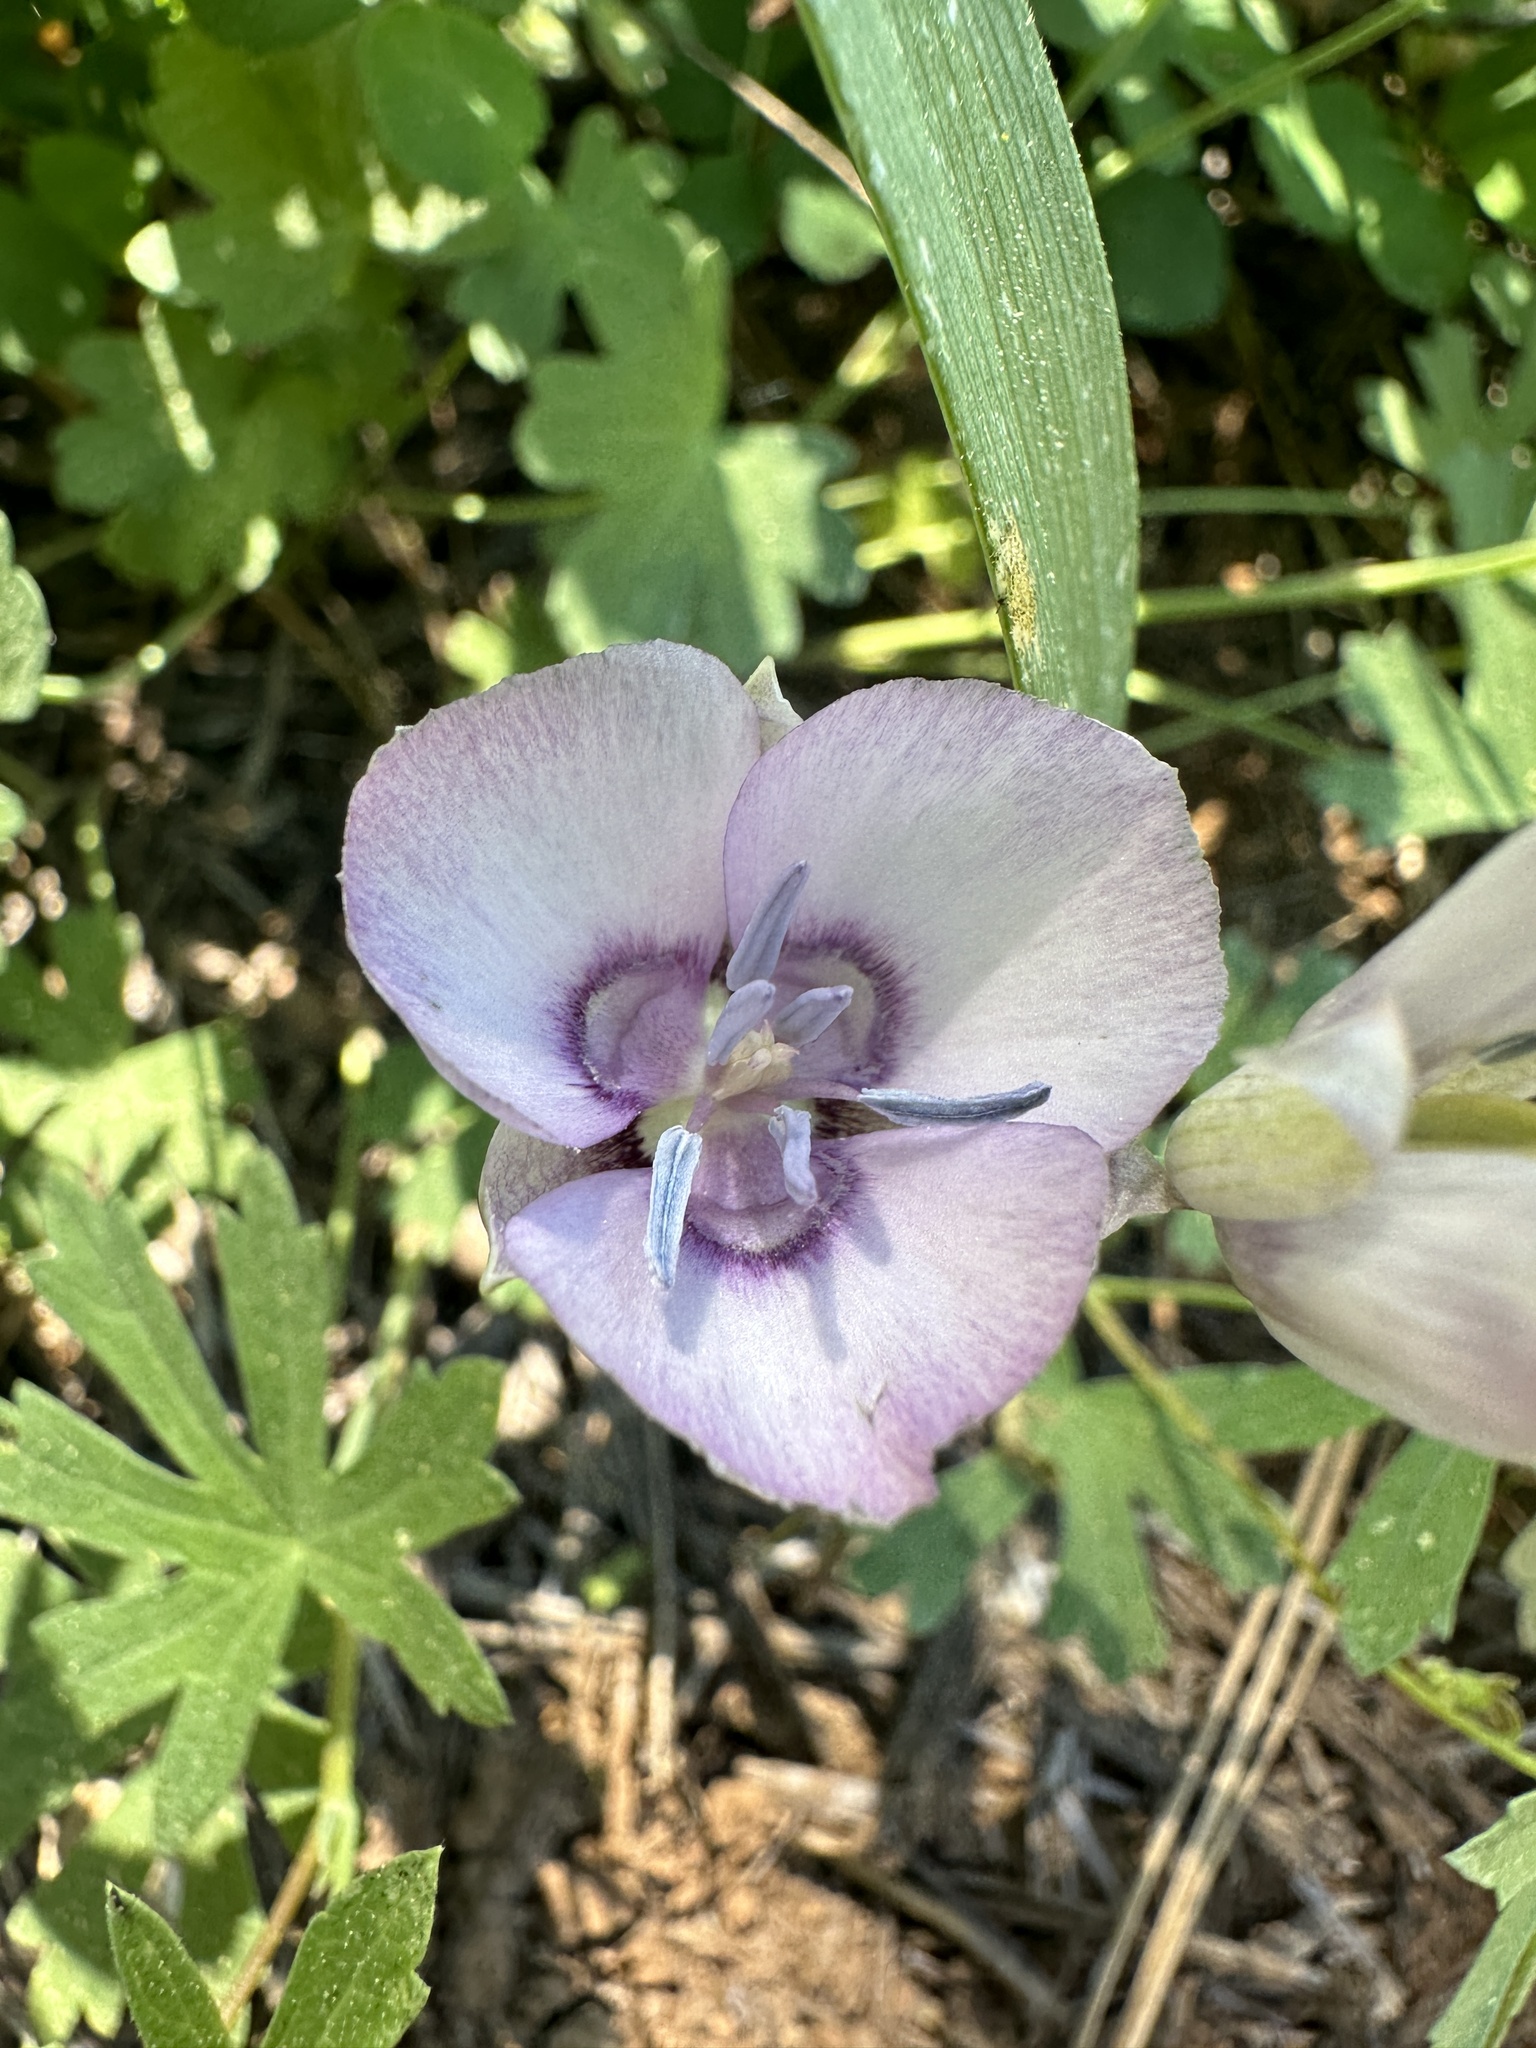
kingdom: Plantae
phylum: Tracheophyta
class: Liliopsida
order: Liliales
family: Liliaceae
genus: Calochortus
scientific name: Calochortus nudus
